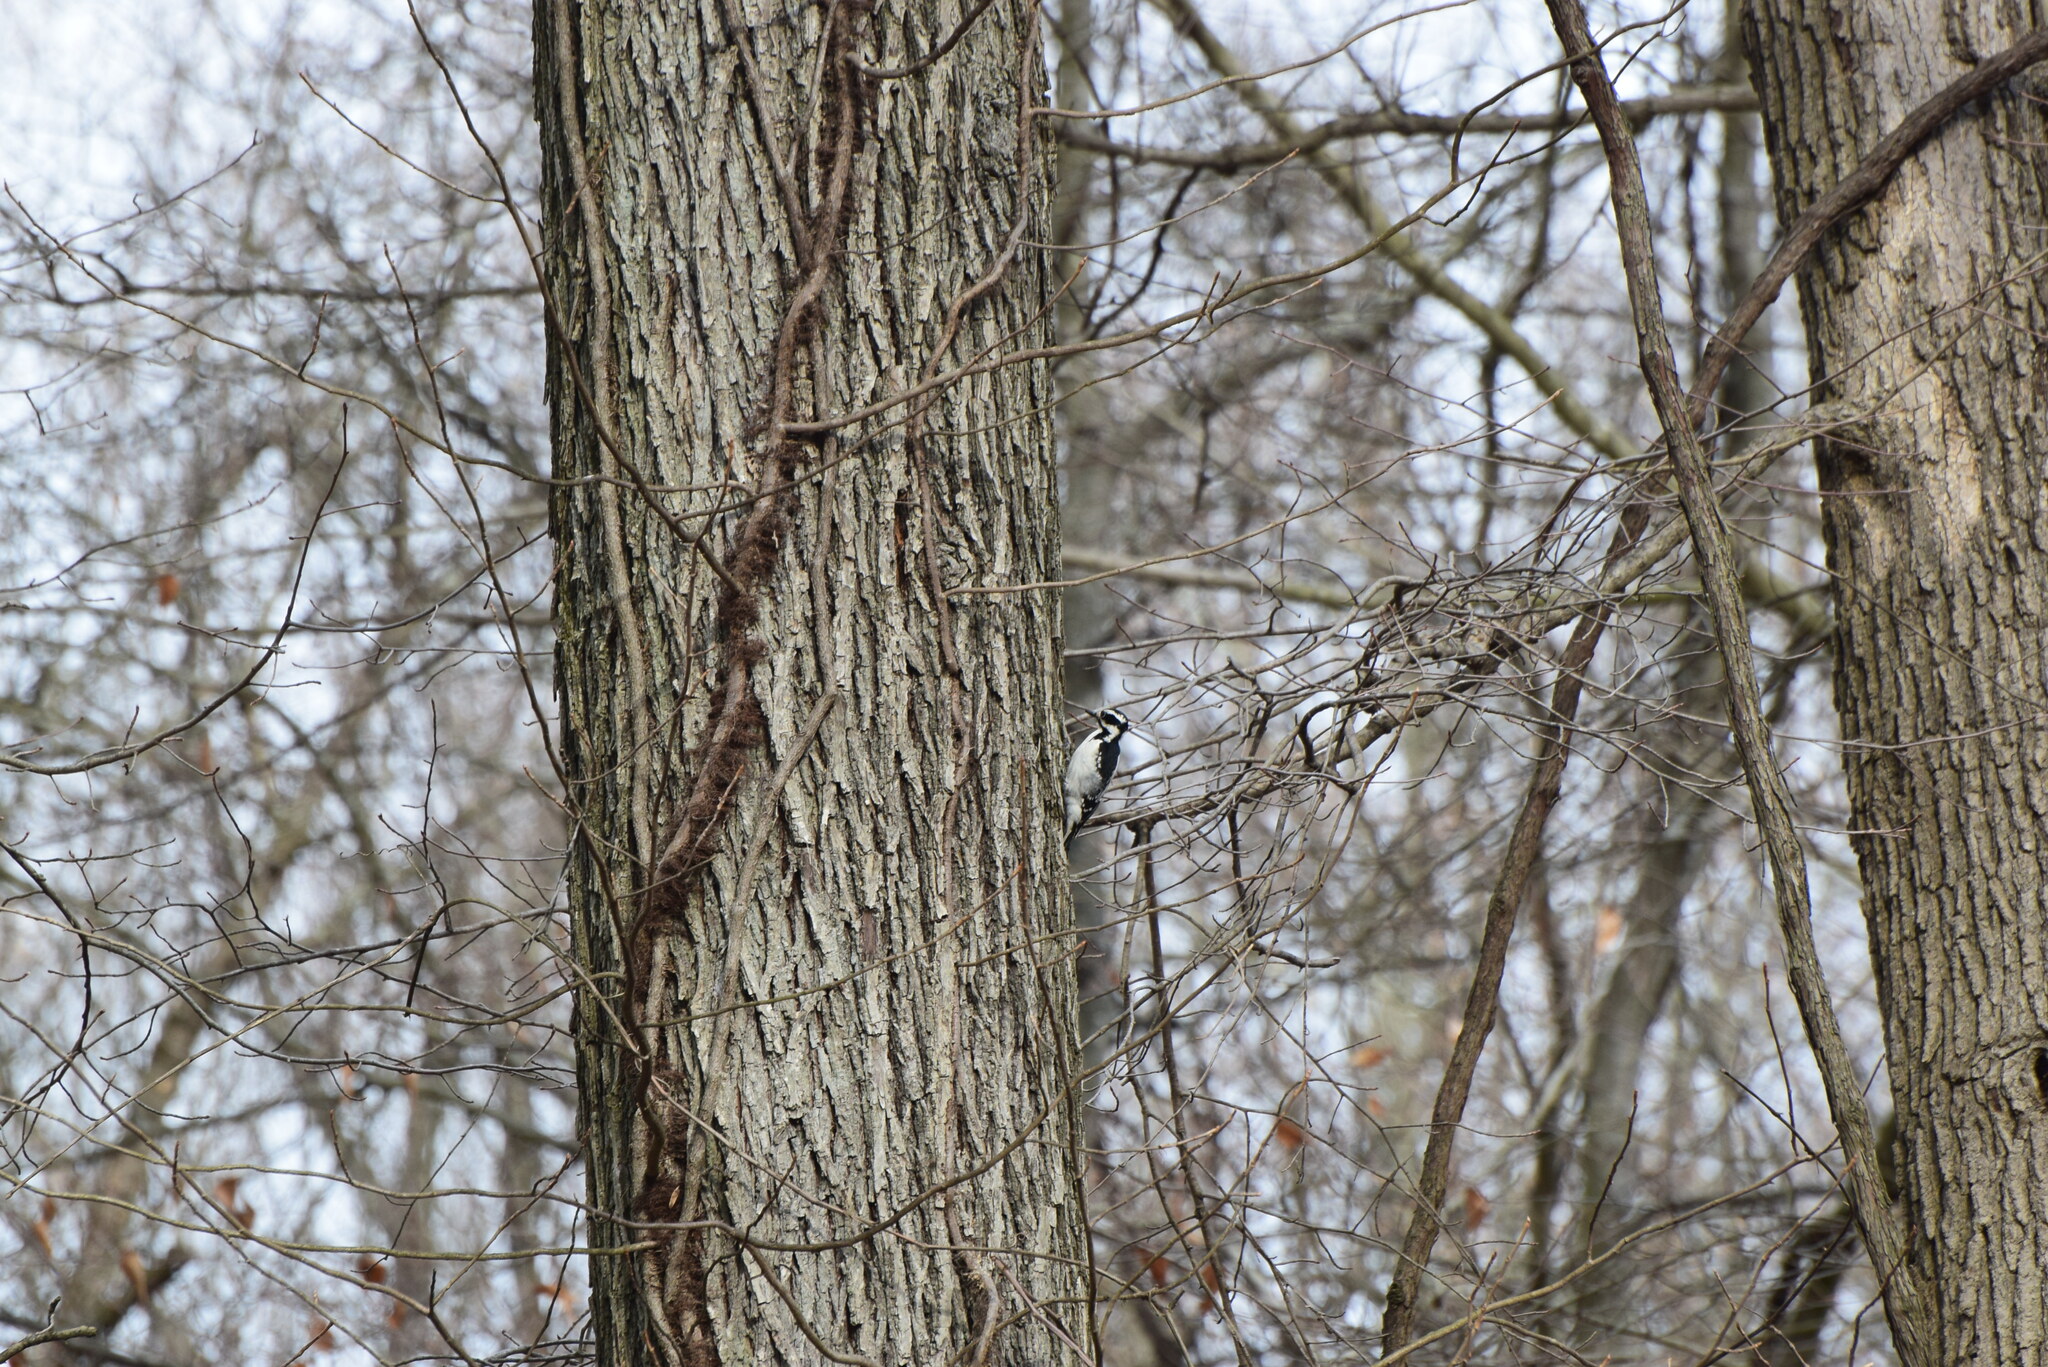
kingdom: Animalia
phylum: Chordata
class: Aves
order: Piciformes
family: Picidae
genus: Leuconotopicus
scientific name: Leuconotopicus villosus
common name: Hairy woodpecker
